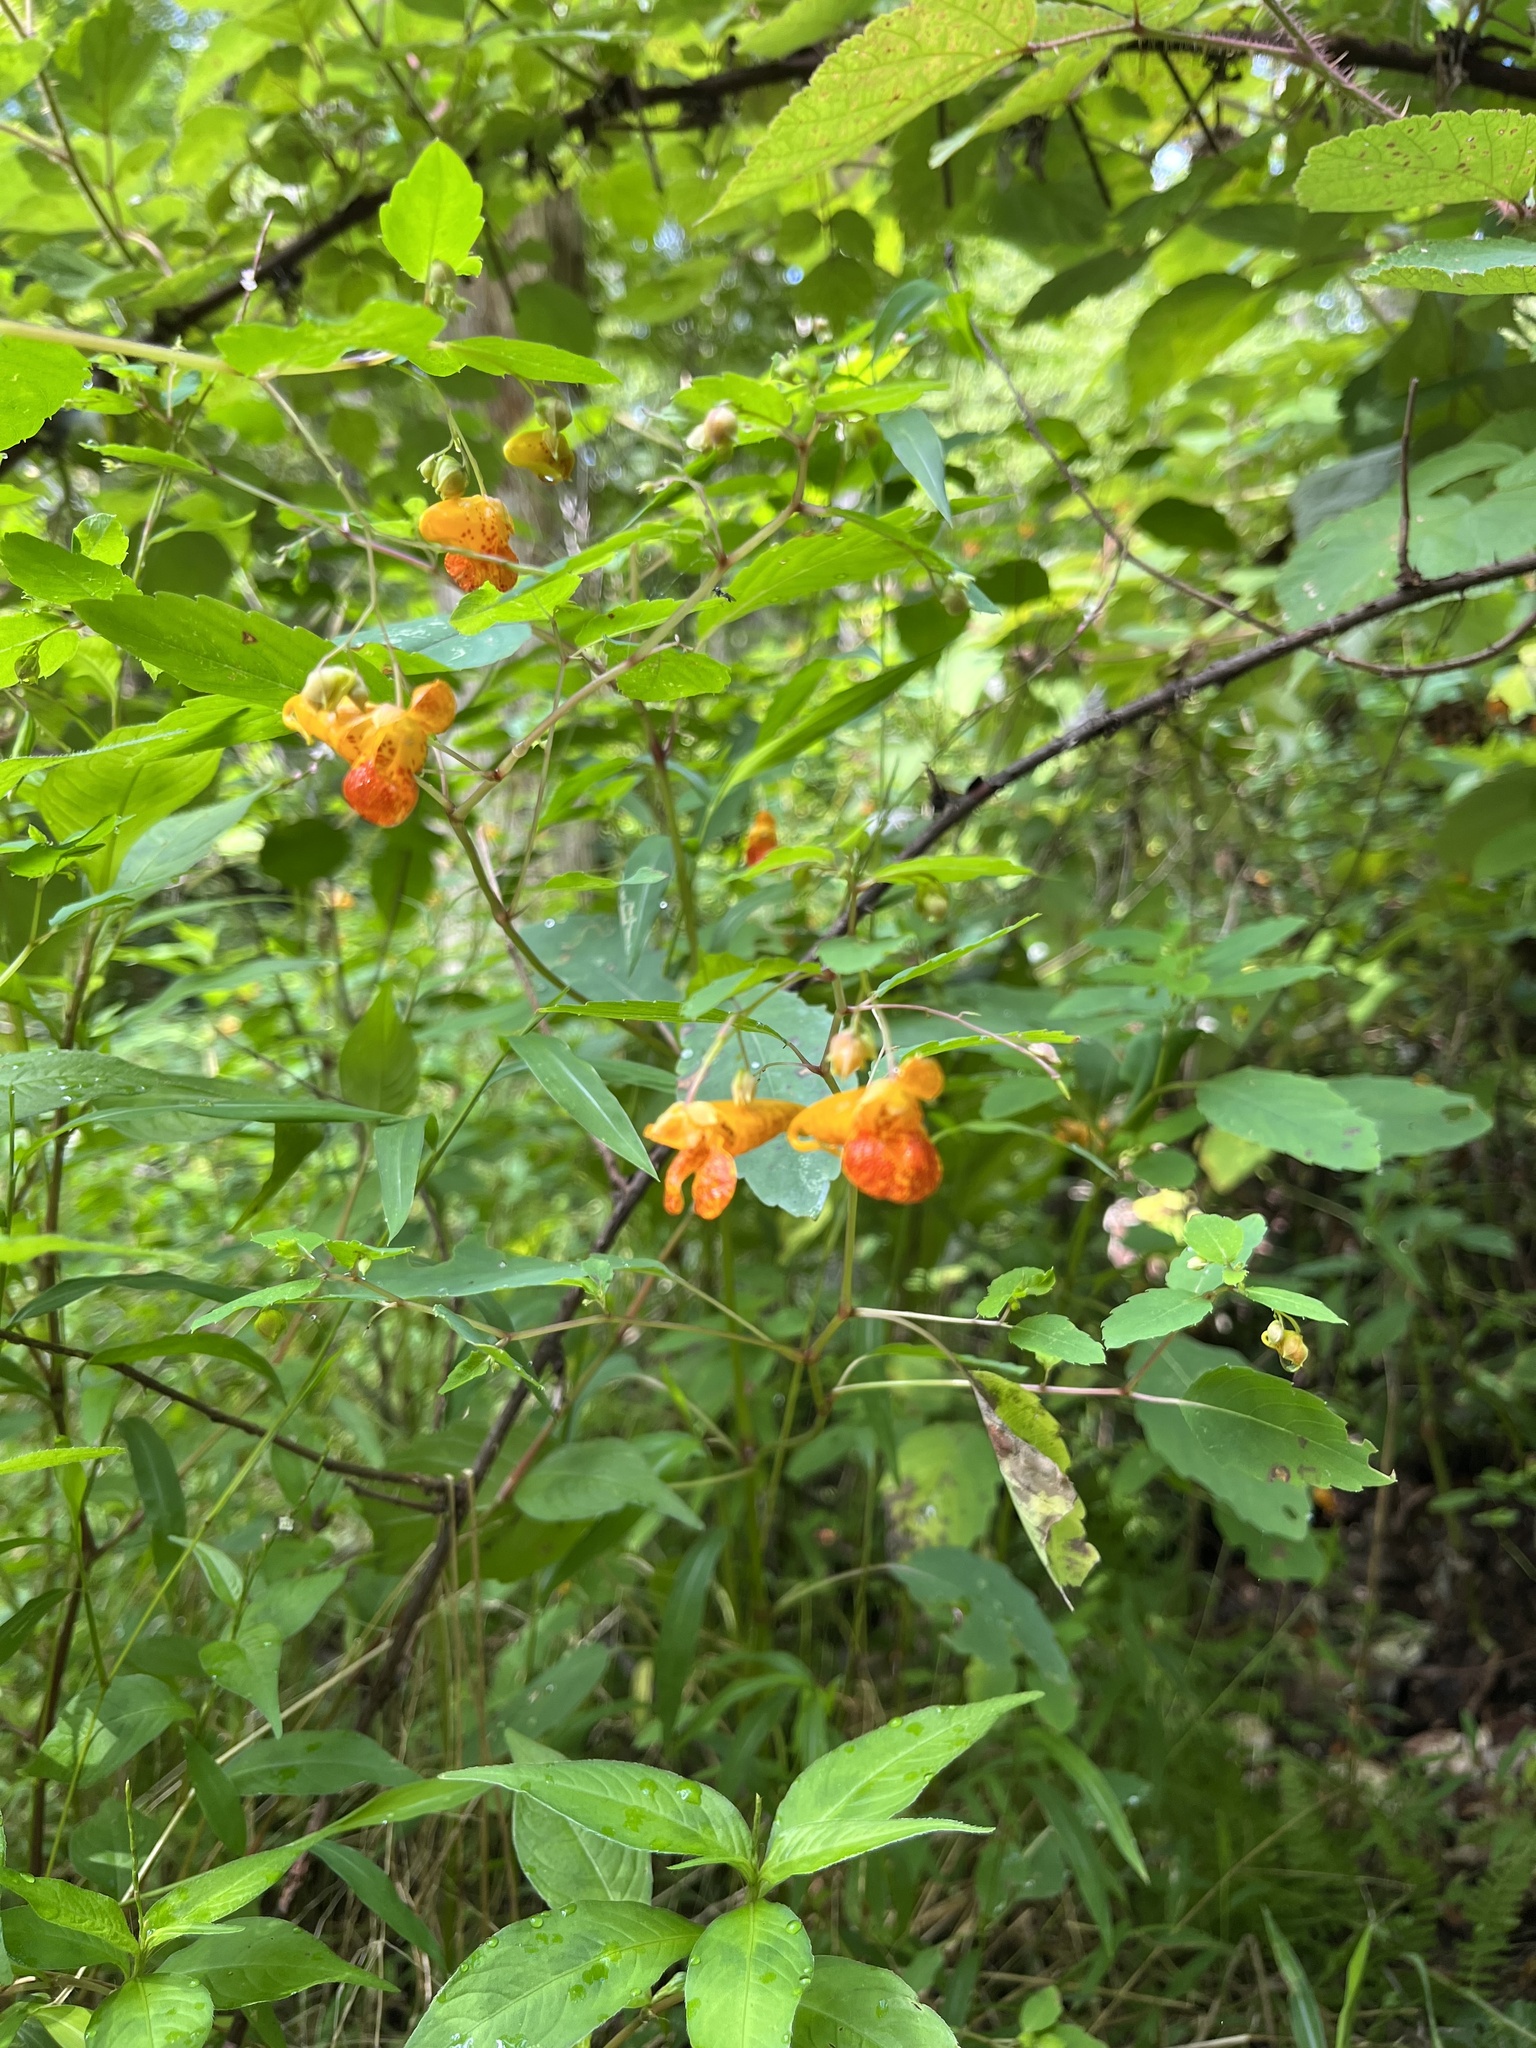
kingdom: Plantae
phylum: Tracheophyta
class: Magnoliopsida
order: Ericales
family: Balsaminaceae
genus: Impatiens
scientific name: Impatiens capensis
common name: Orange balsam
